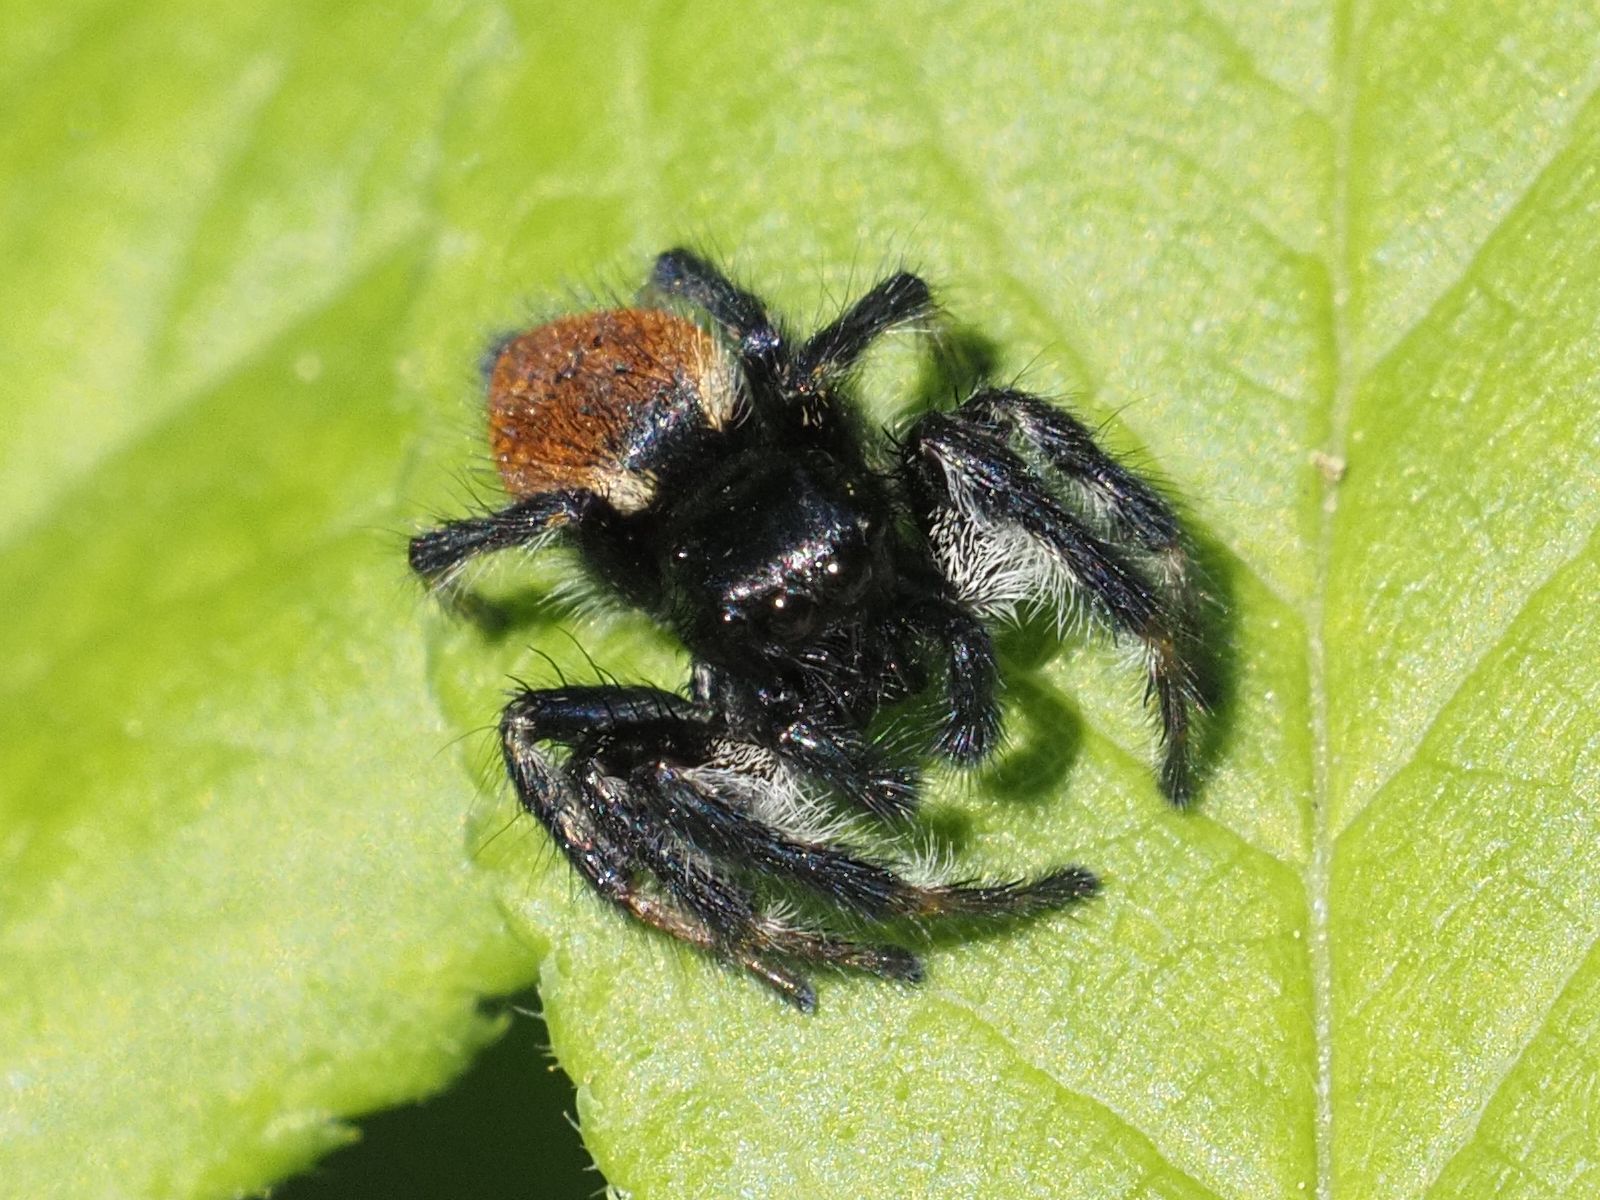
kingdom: Animalia
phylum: Arthropoda
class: Arachnida
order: Araneae
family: Salticidae
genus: Carrhotus
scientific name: Carrhotus xanthogramma
